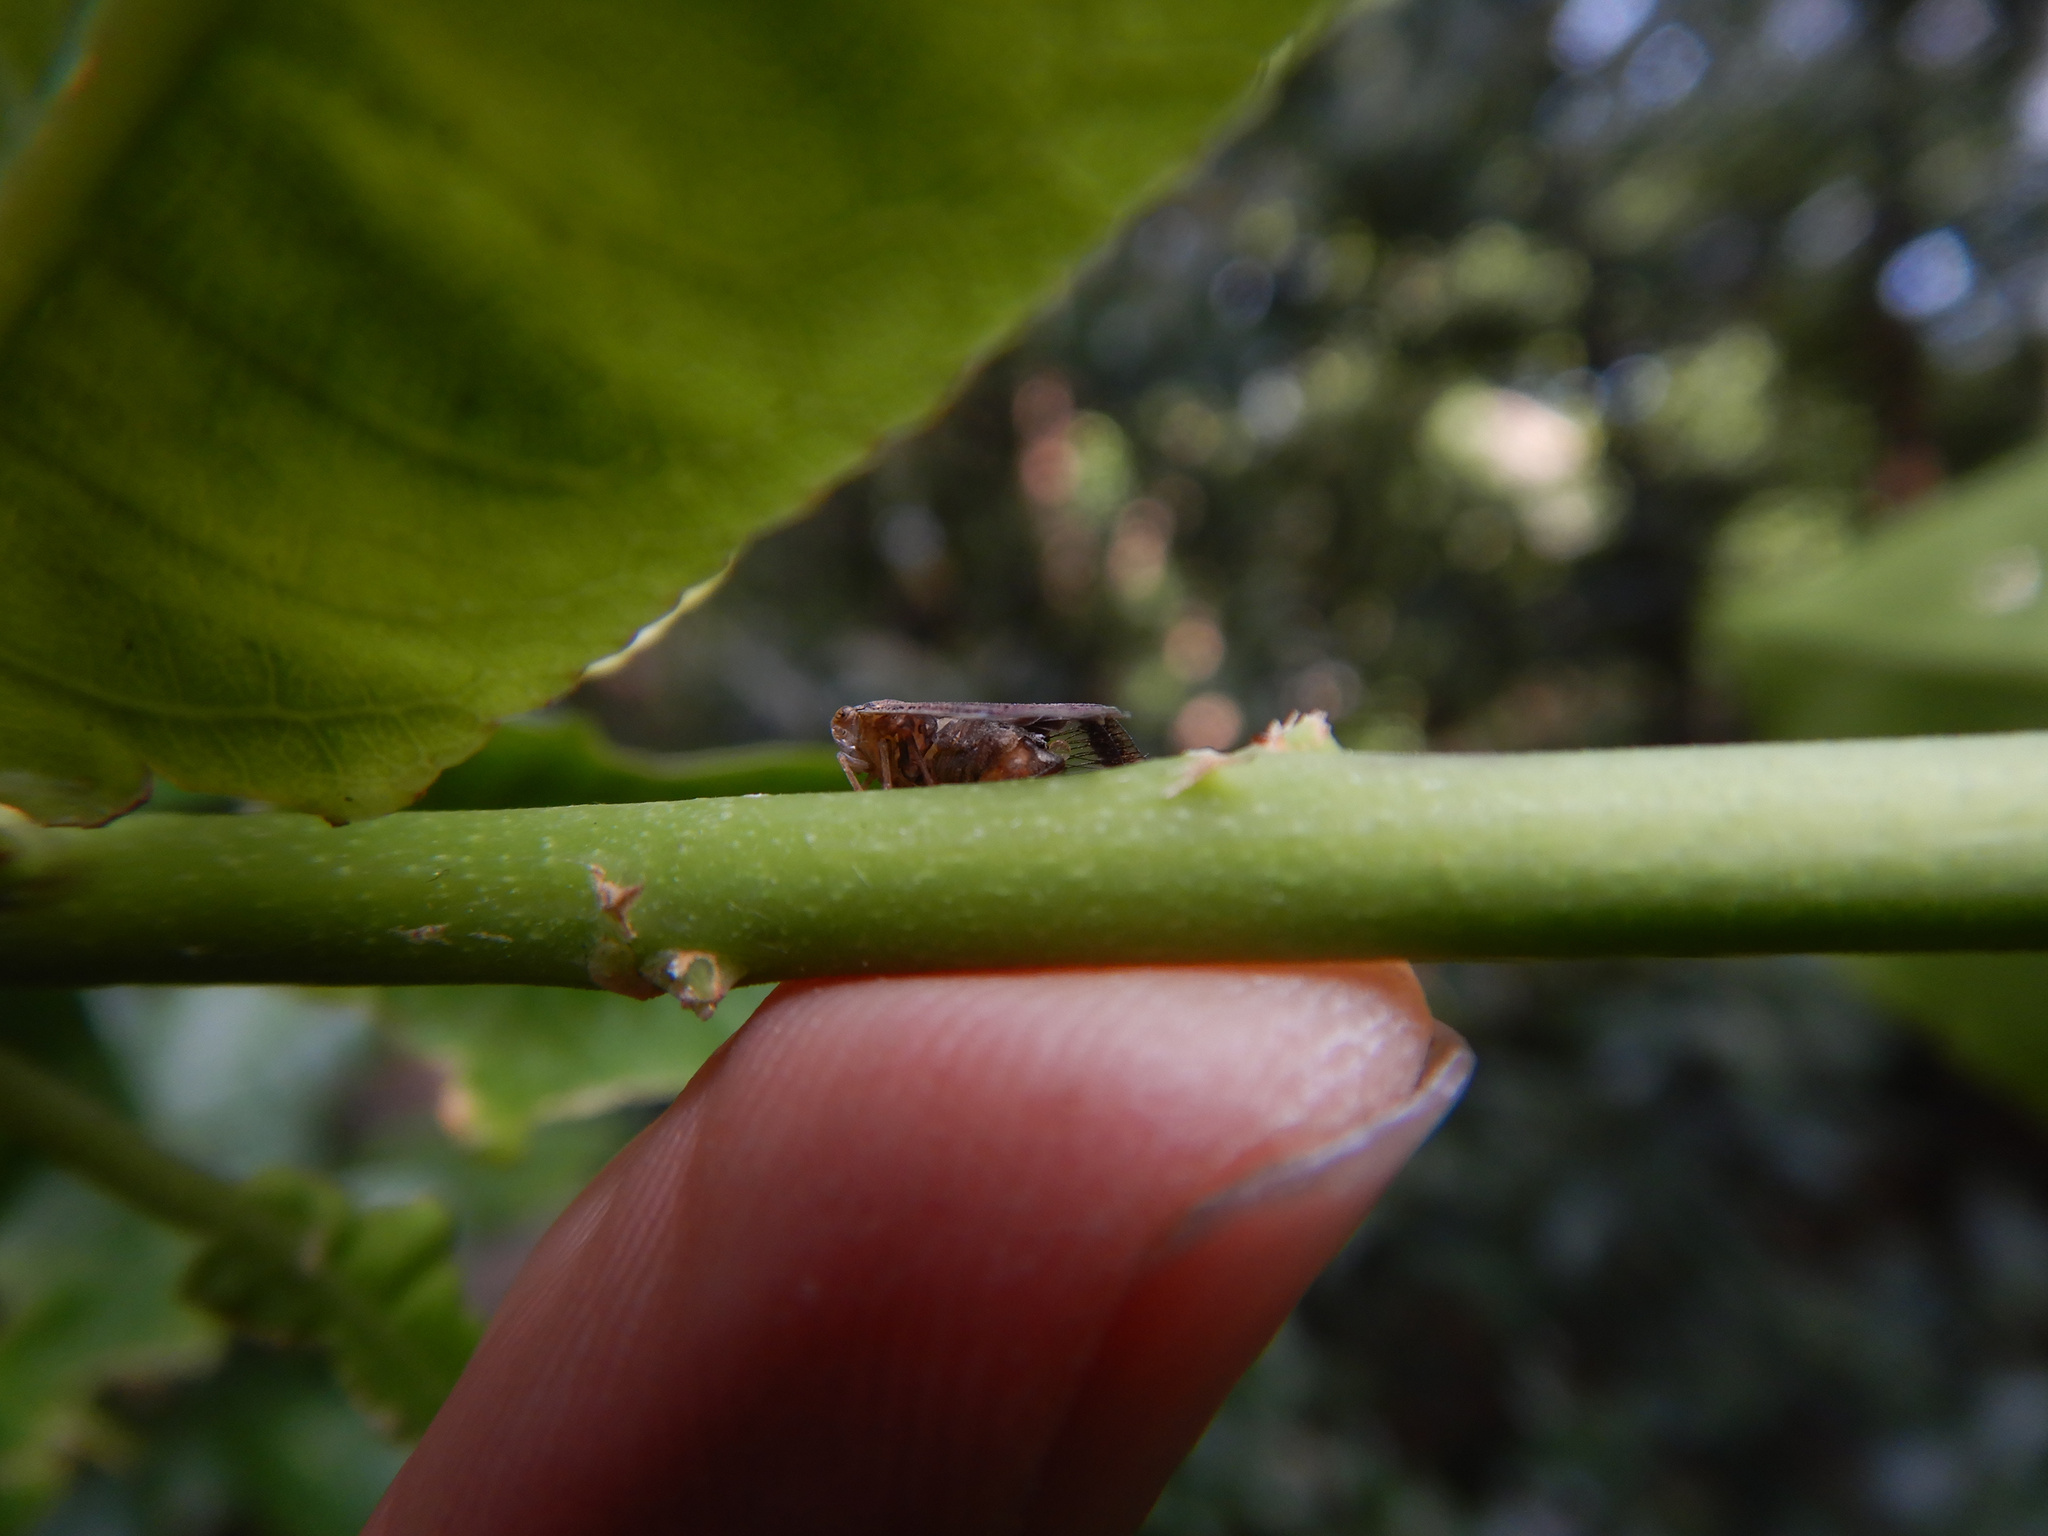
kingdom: Animalia
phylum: Arthropoda
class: Insecta
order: Hemiptera
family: Ricaniidae
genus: Scolypopa
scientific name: Scolypopa australis
